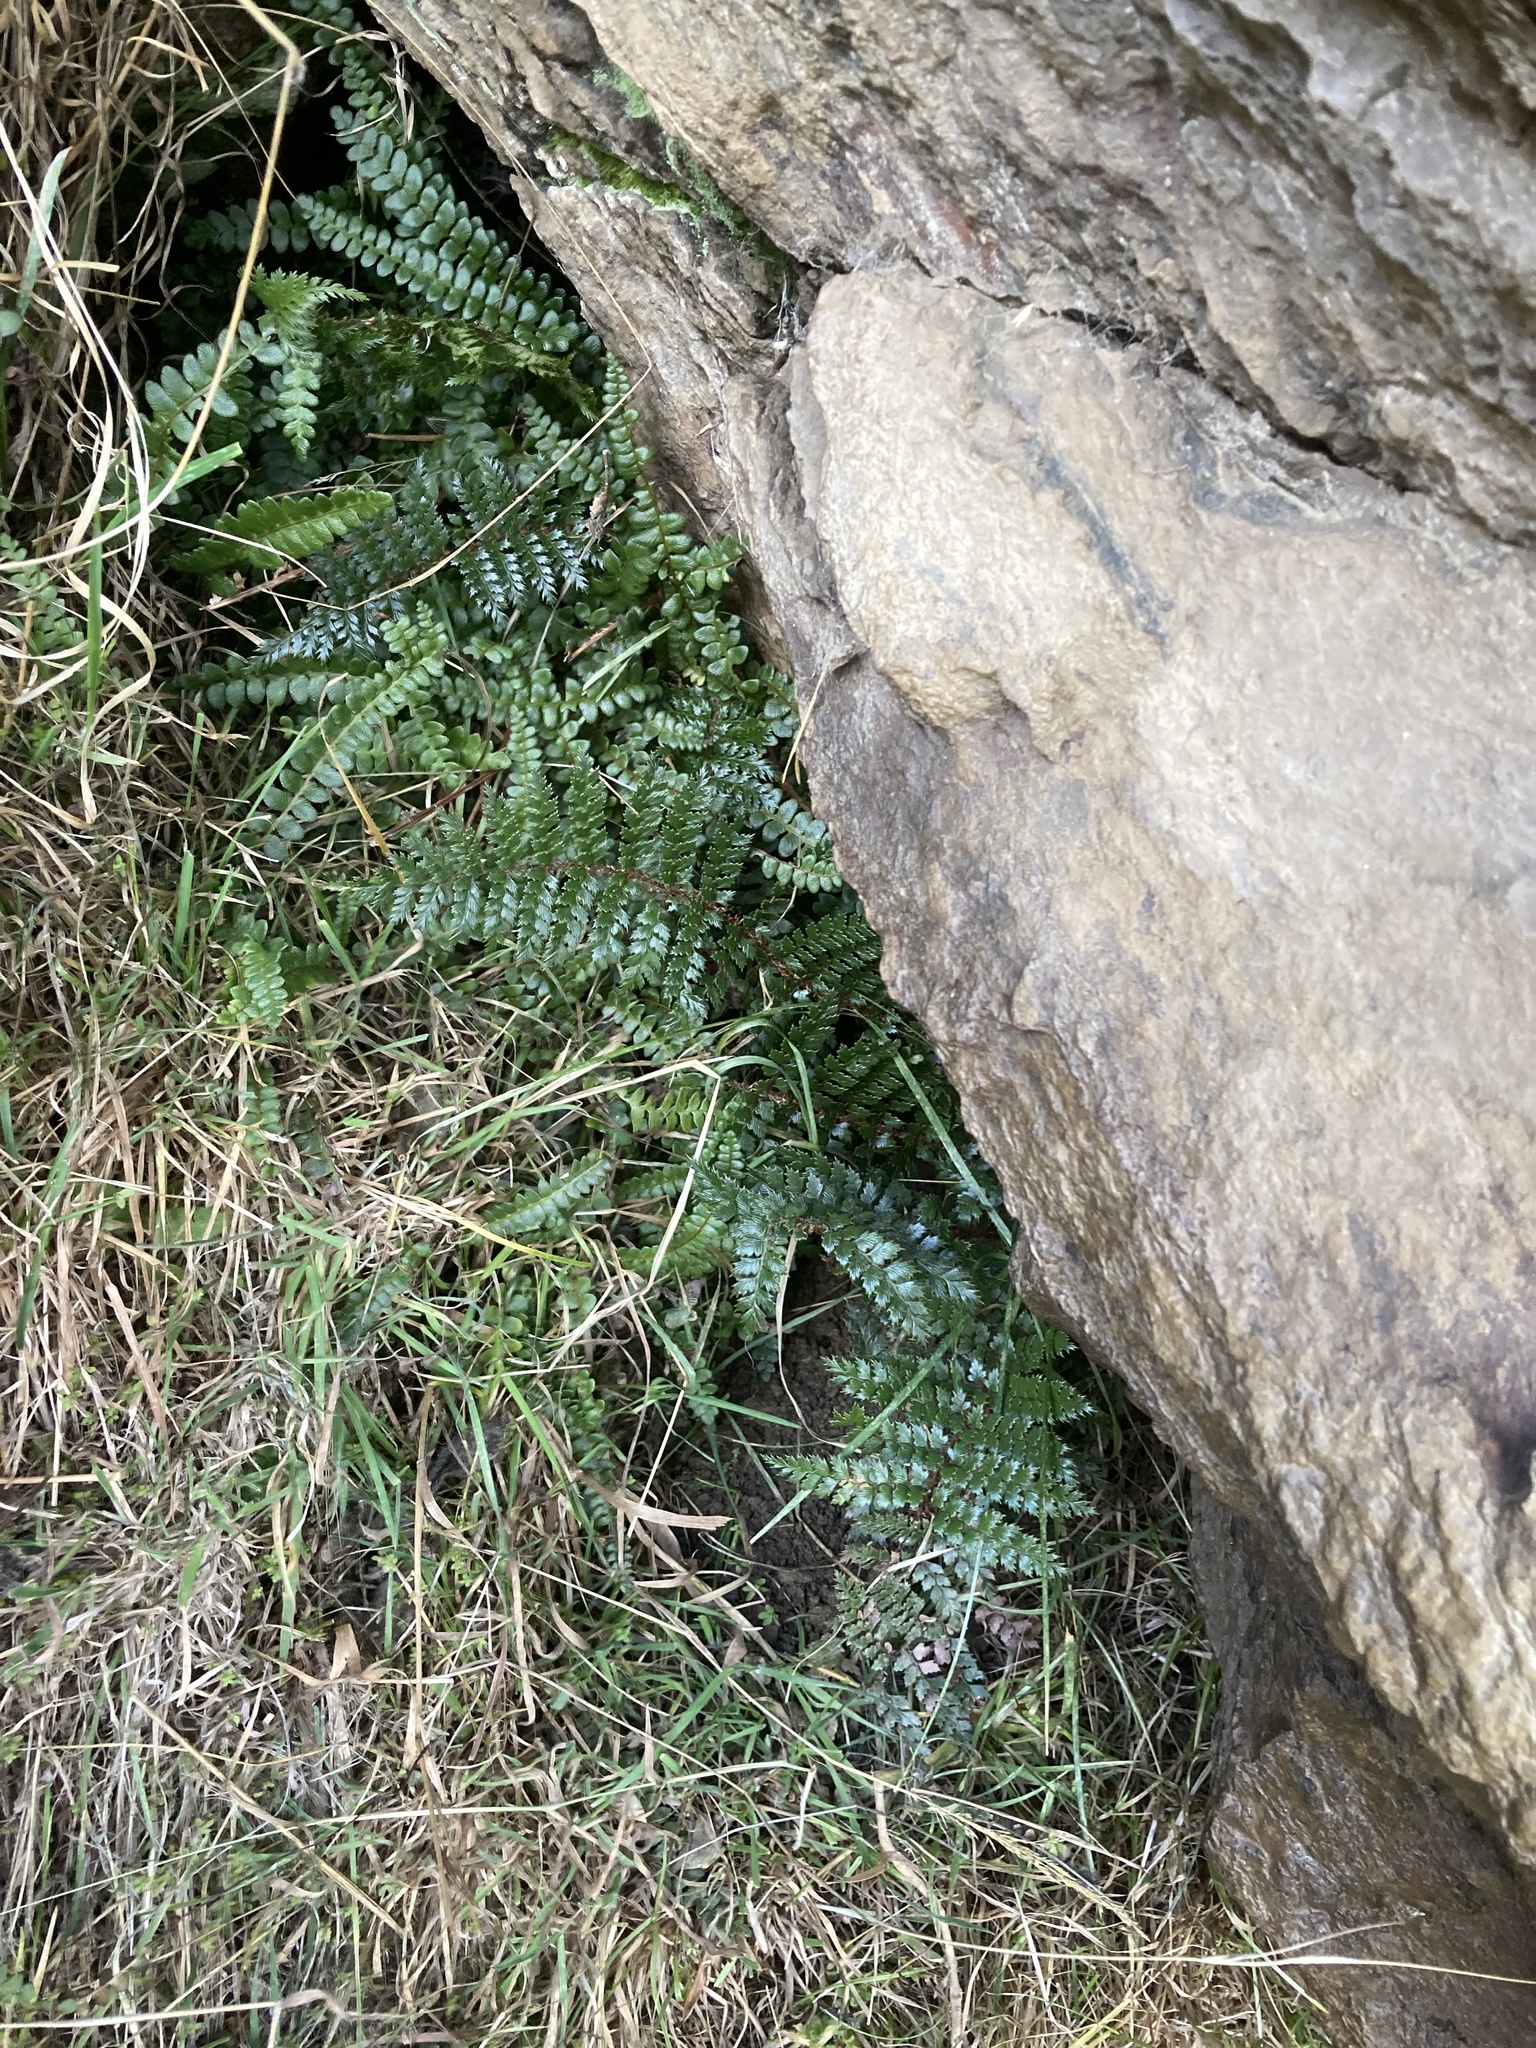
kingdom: Plantae
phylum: Tracheophyta
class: Polypodiopsida
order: Polypodiales
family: Blechnaceae
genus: Austroblechnum
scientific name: Austroblechnum penna-marina
